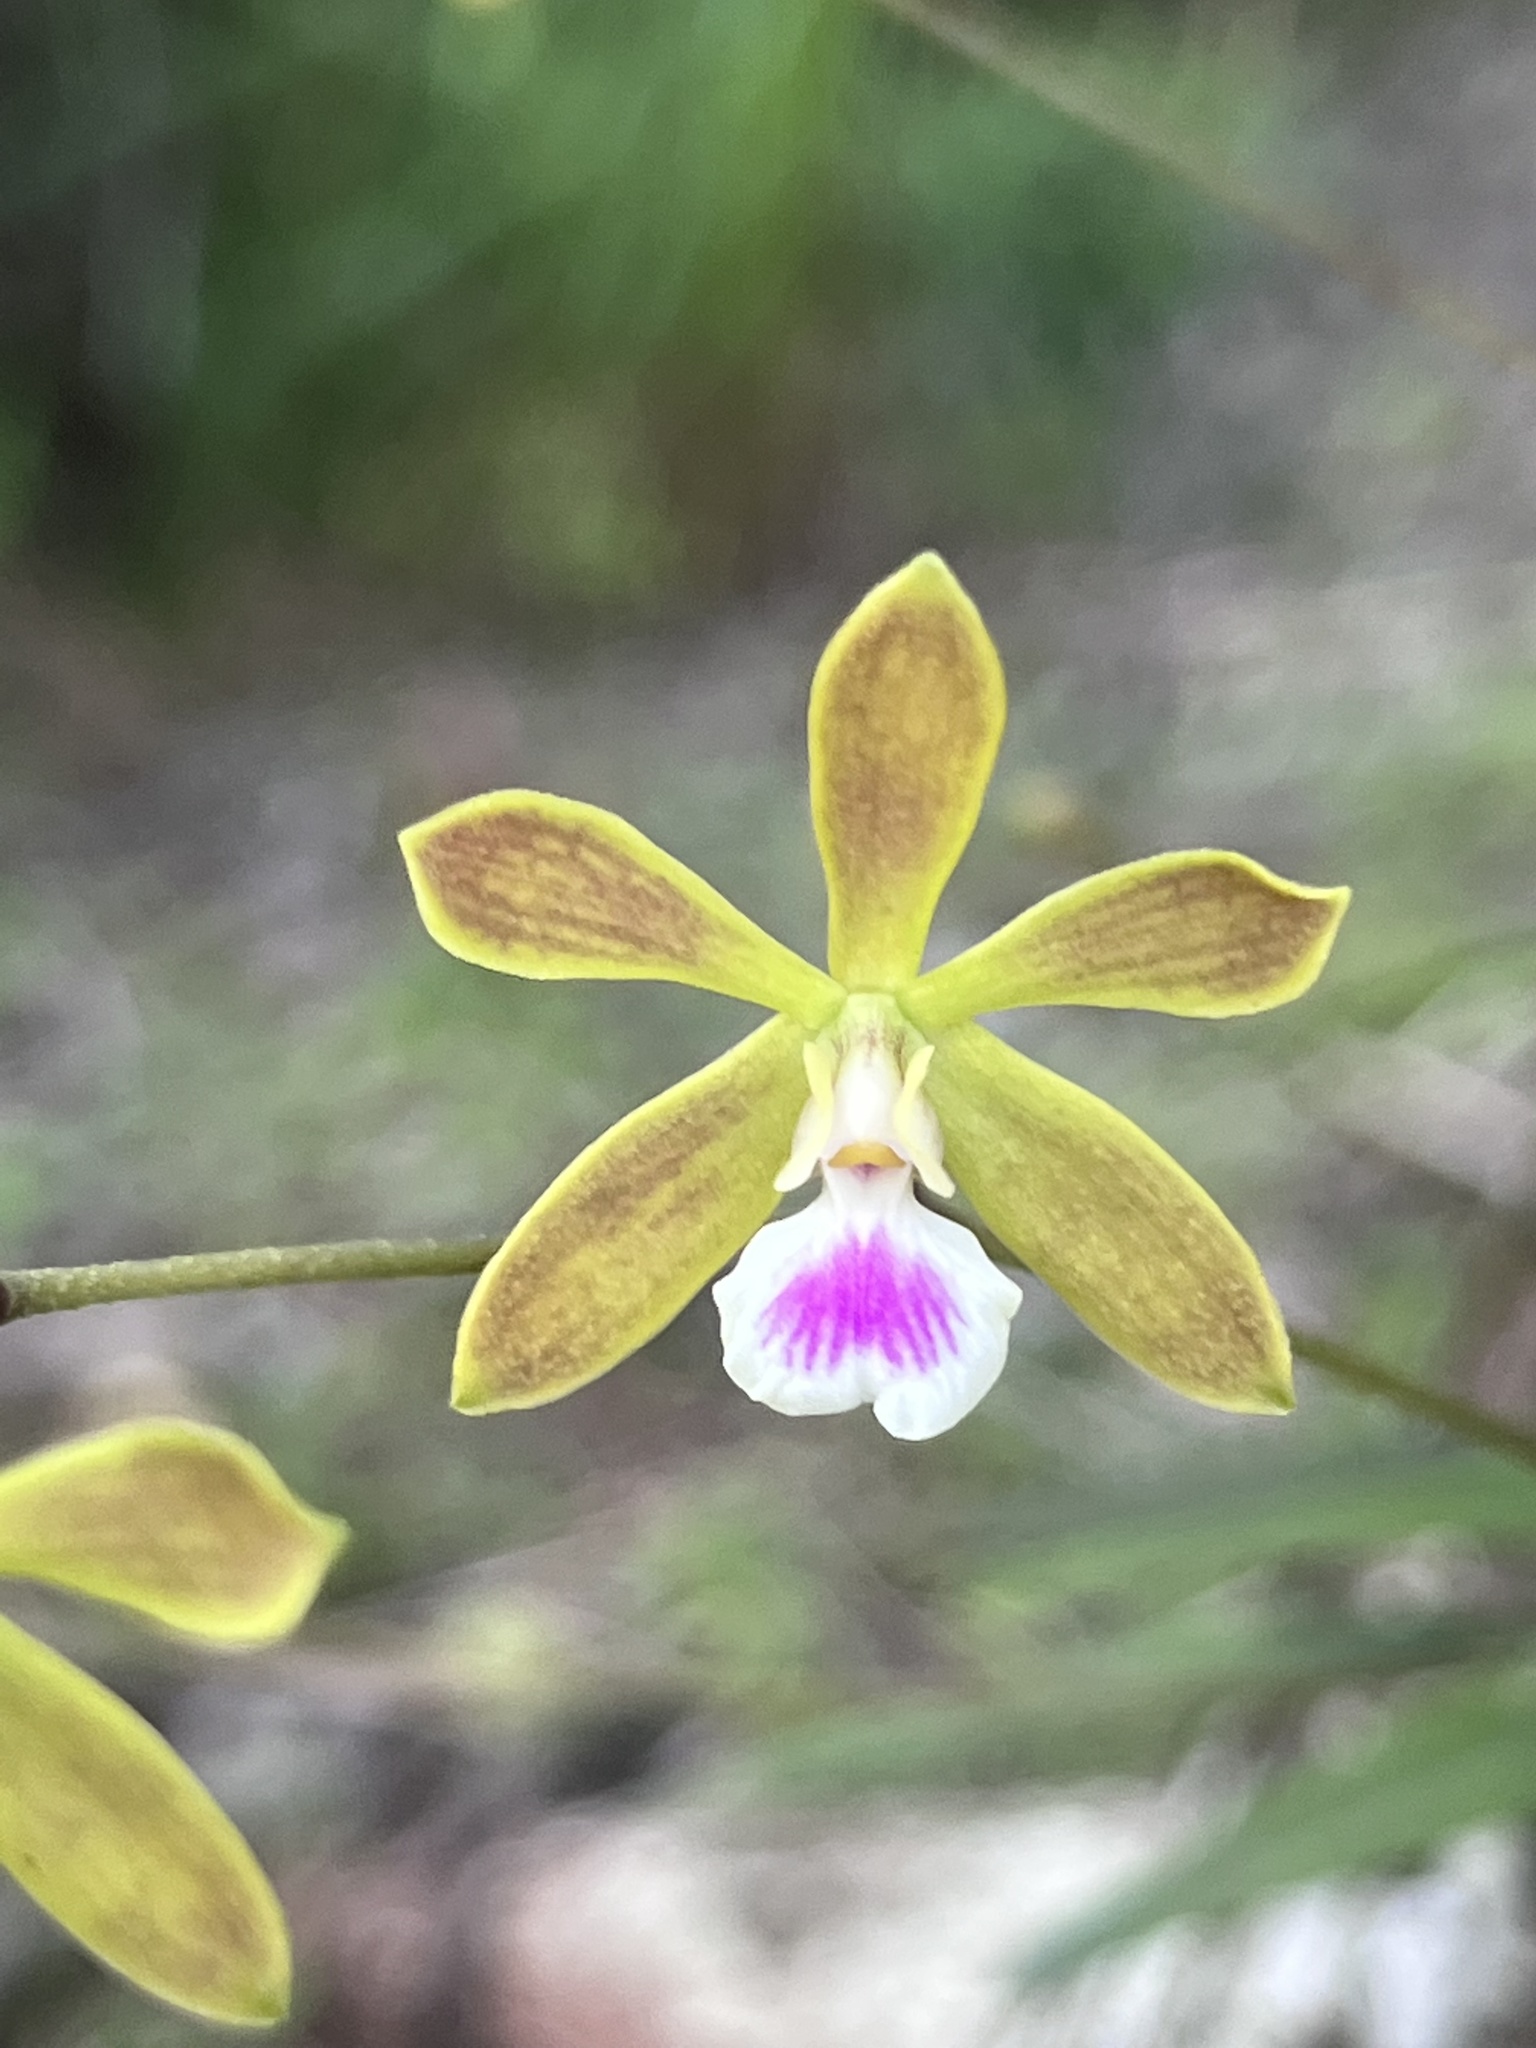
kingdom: Plantae
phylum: Tracheophyta
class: Liliopsida
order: Asparagales
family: Orchidaceae
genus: Encyclia
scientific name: Encyclia tampensis
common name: Florida butterfly orchid
